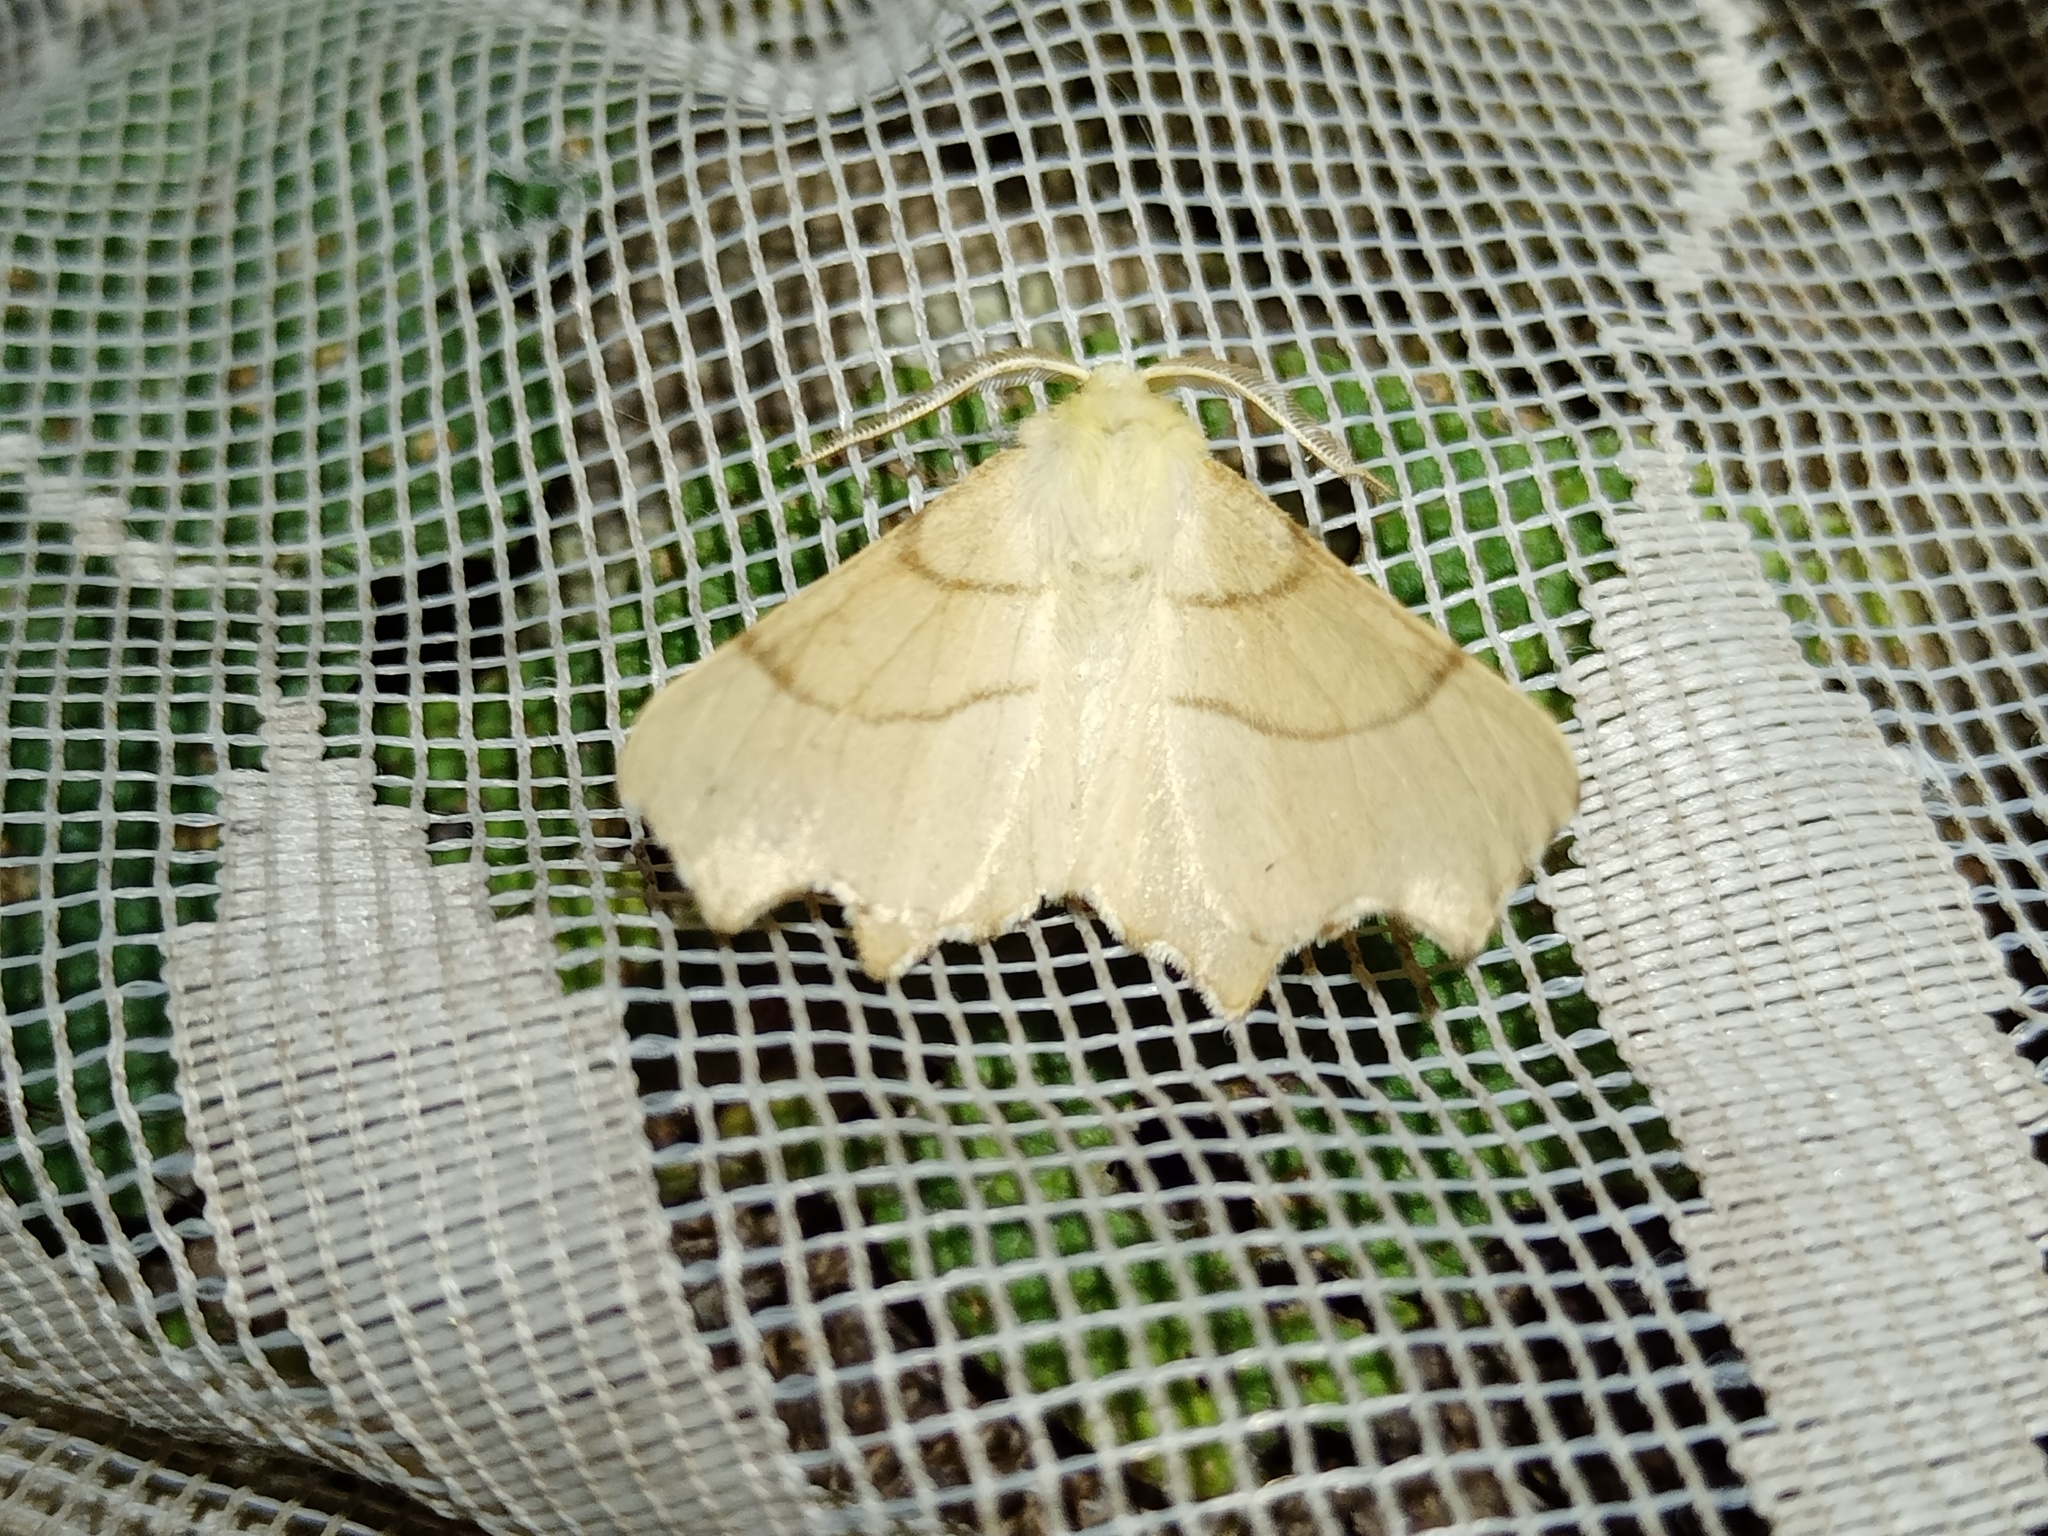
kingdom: Animalia
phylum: Arthropoda
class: Insecta
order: Lepidoptera
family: Geometridae
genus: Ennomos
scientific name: Ennomos erosaria
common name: September thorn
